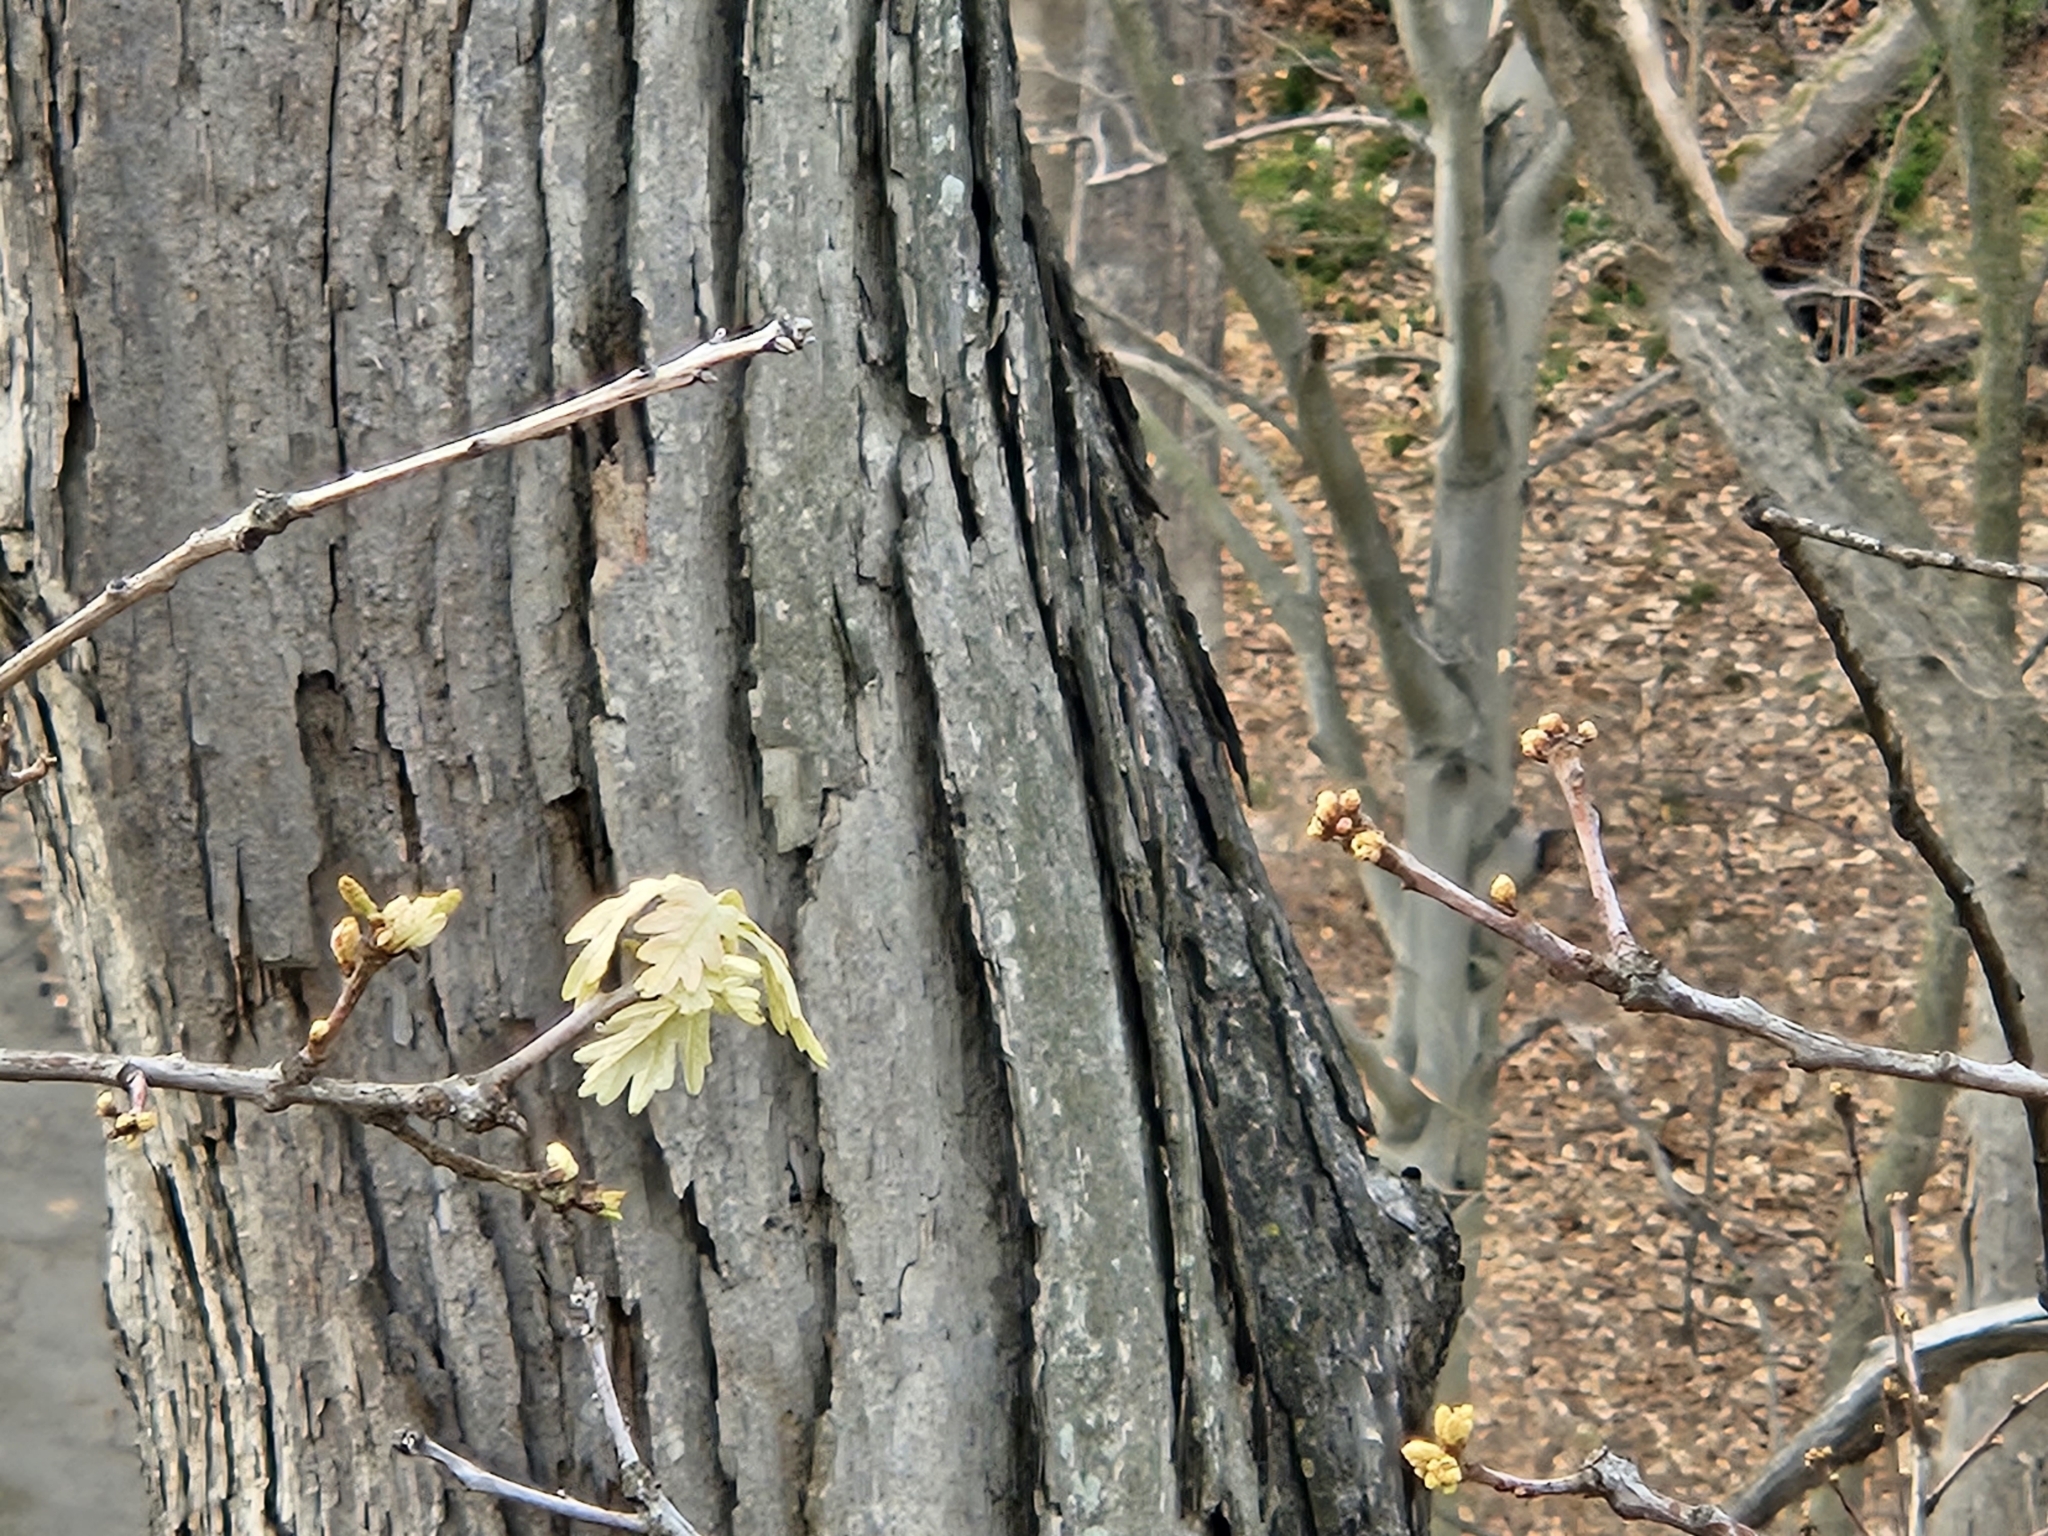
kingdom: Plantae
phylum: Tracheophyta
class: Magnoliopsida
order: Fagales
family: Fagaceae
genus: Quercus
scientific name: Quercus alba
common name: White oak
